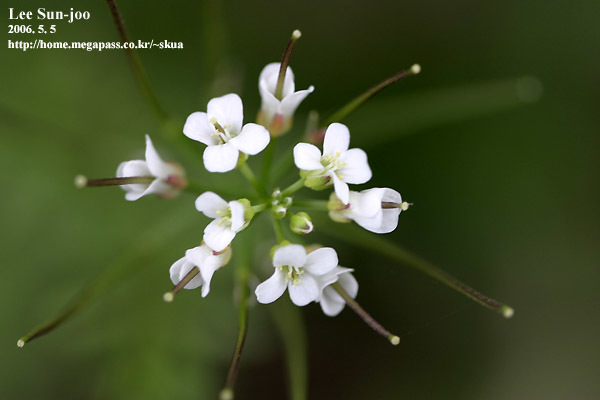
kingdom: Plantae
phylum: Tracheophyta
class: Magnoliopsida
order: Brassicales
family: Brassicaceae
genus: Cardamine
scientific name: Cardamine occulta
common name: Asian wavy bittercress
